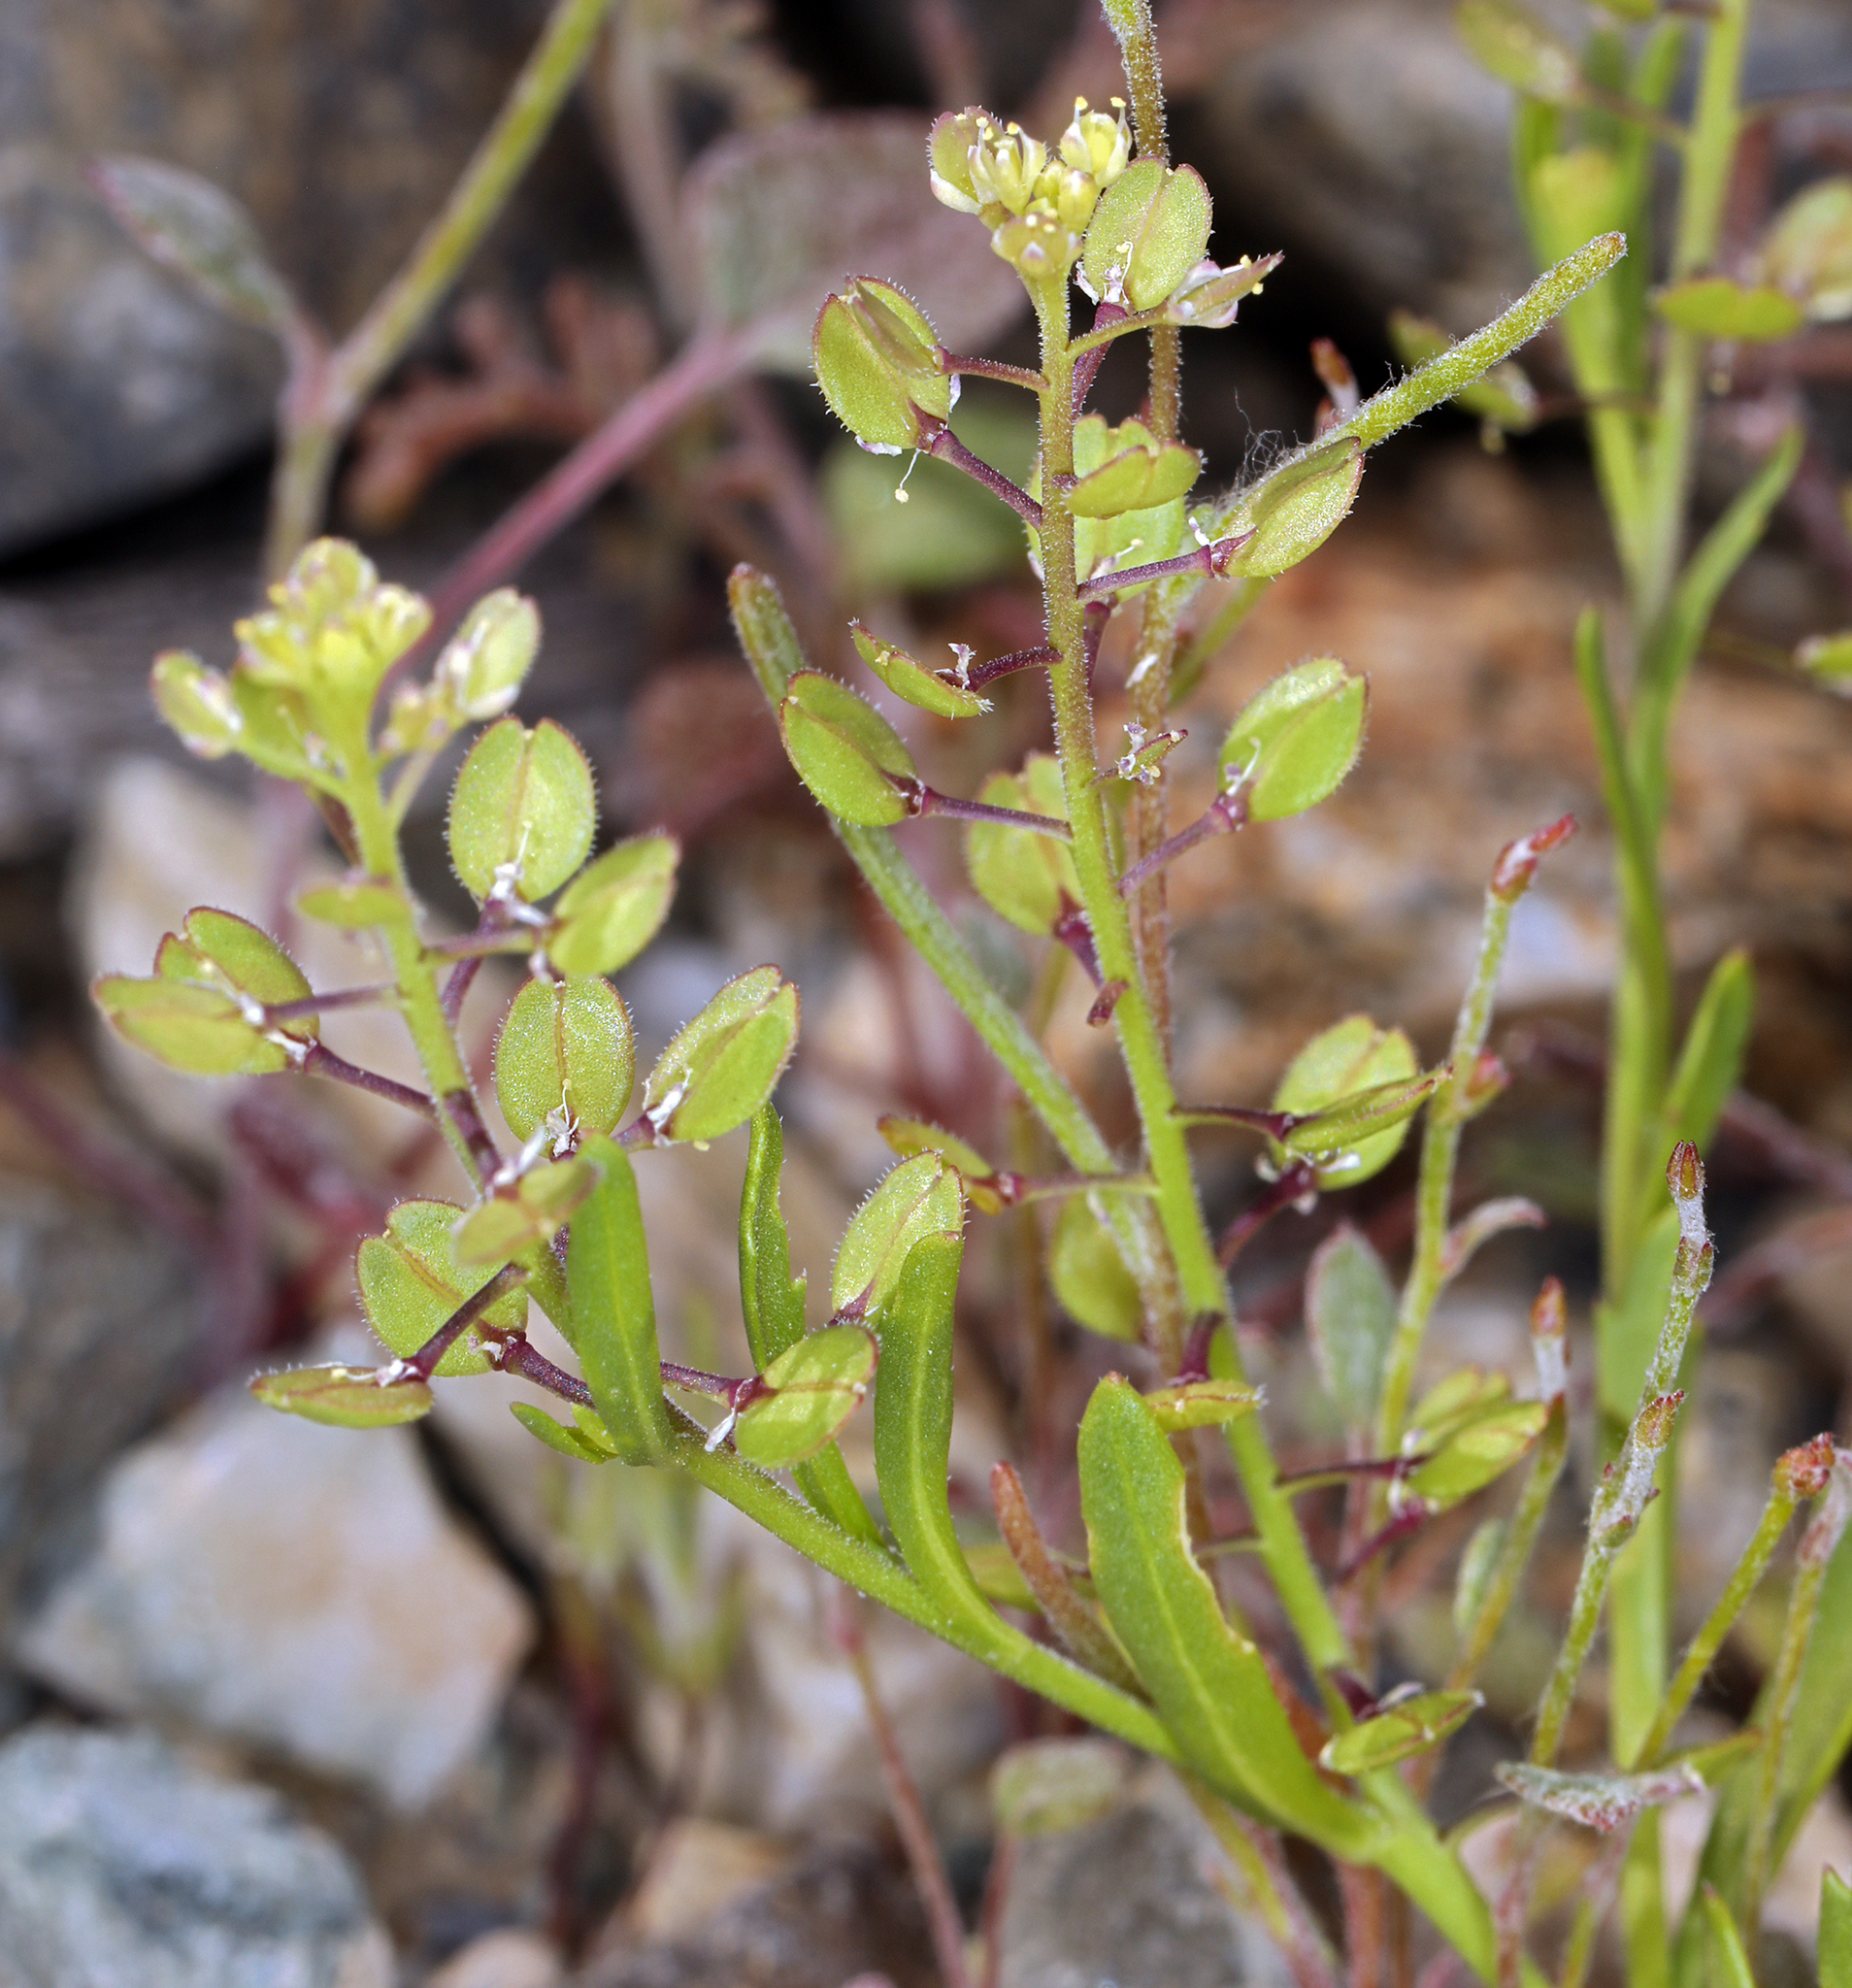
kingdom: Plantae
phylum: Tracheophyta
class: Magnoliopsida
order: Brassicales
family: Brassicaceae
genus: Lepidium
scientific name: Lepidium lasiocarpum
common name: Hairy-pod pepperwort
